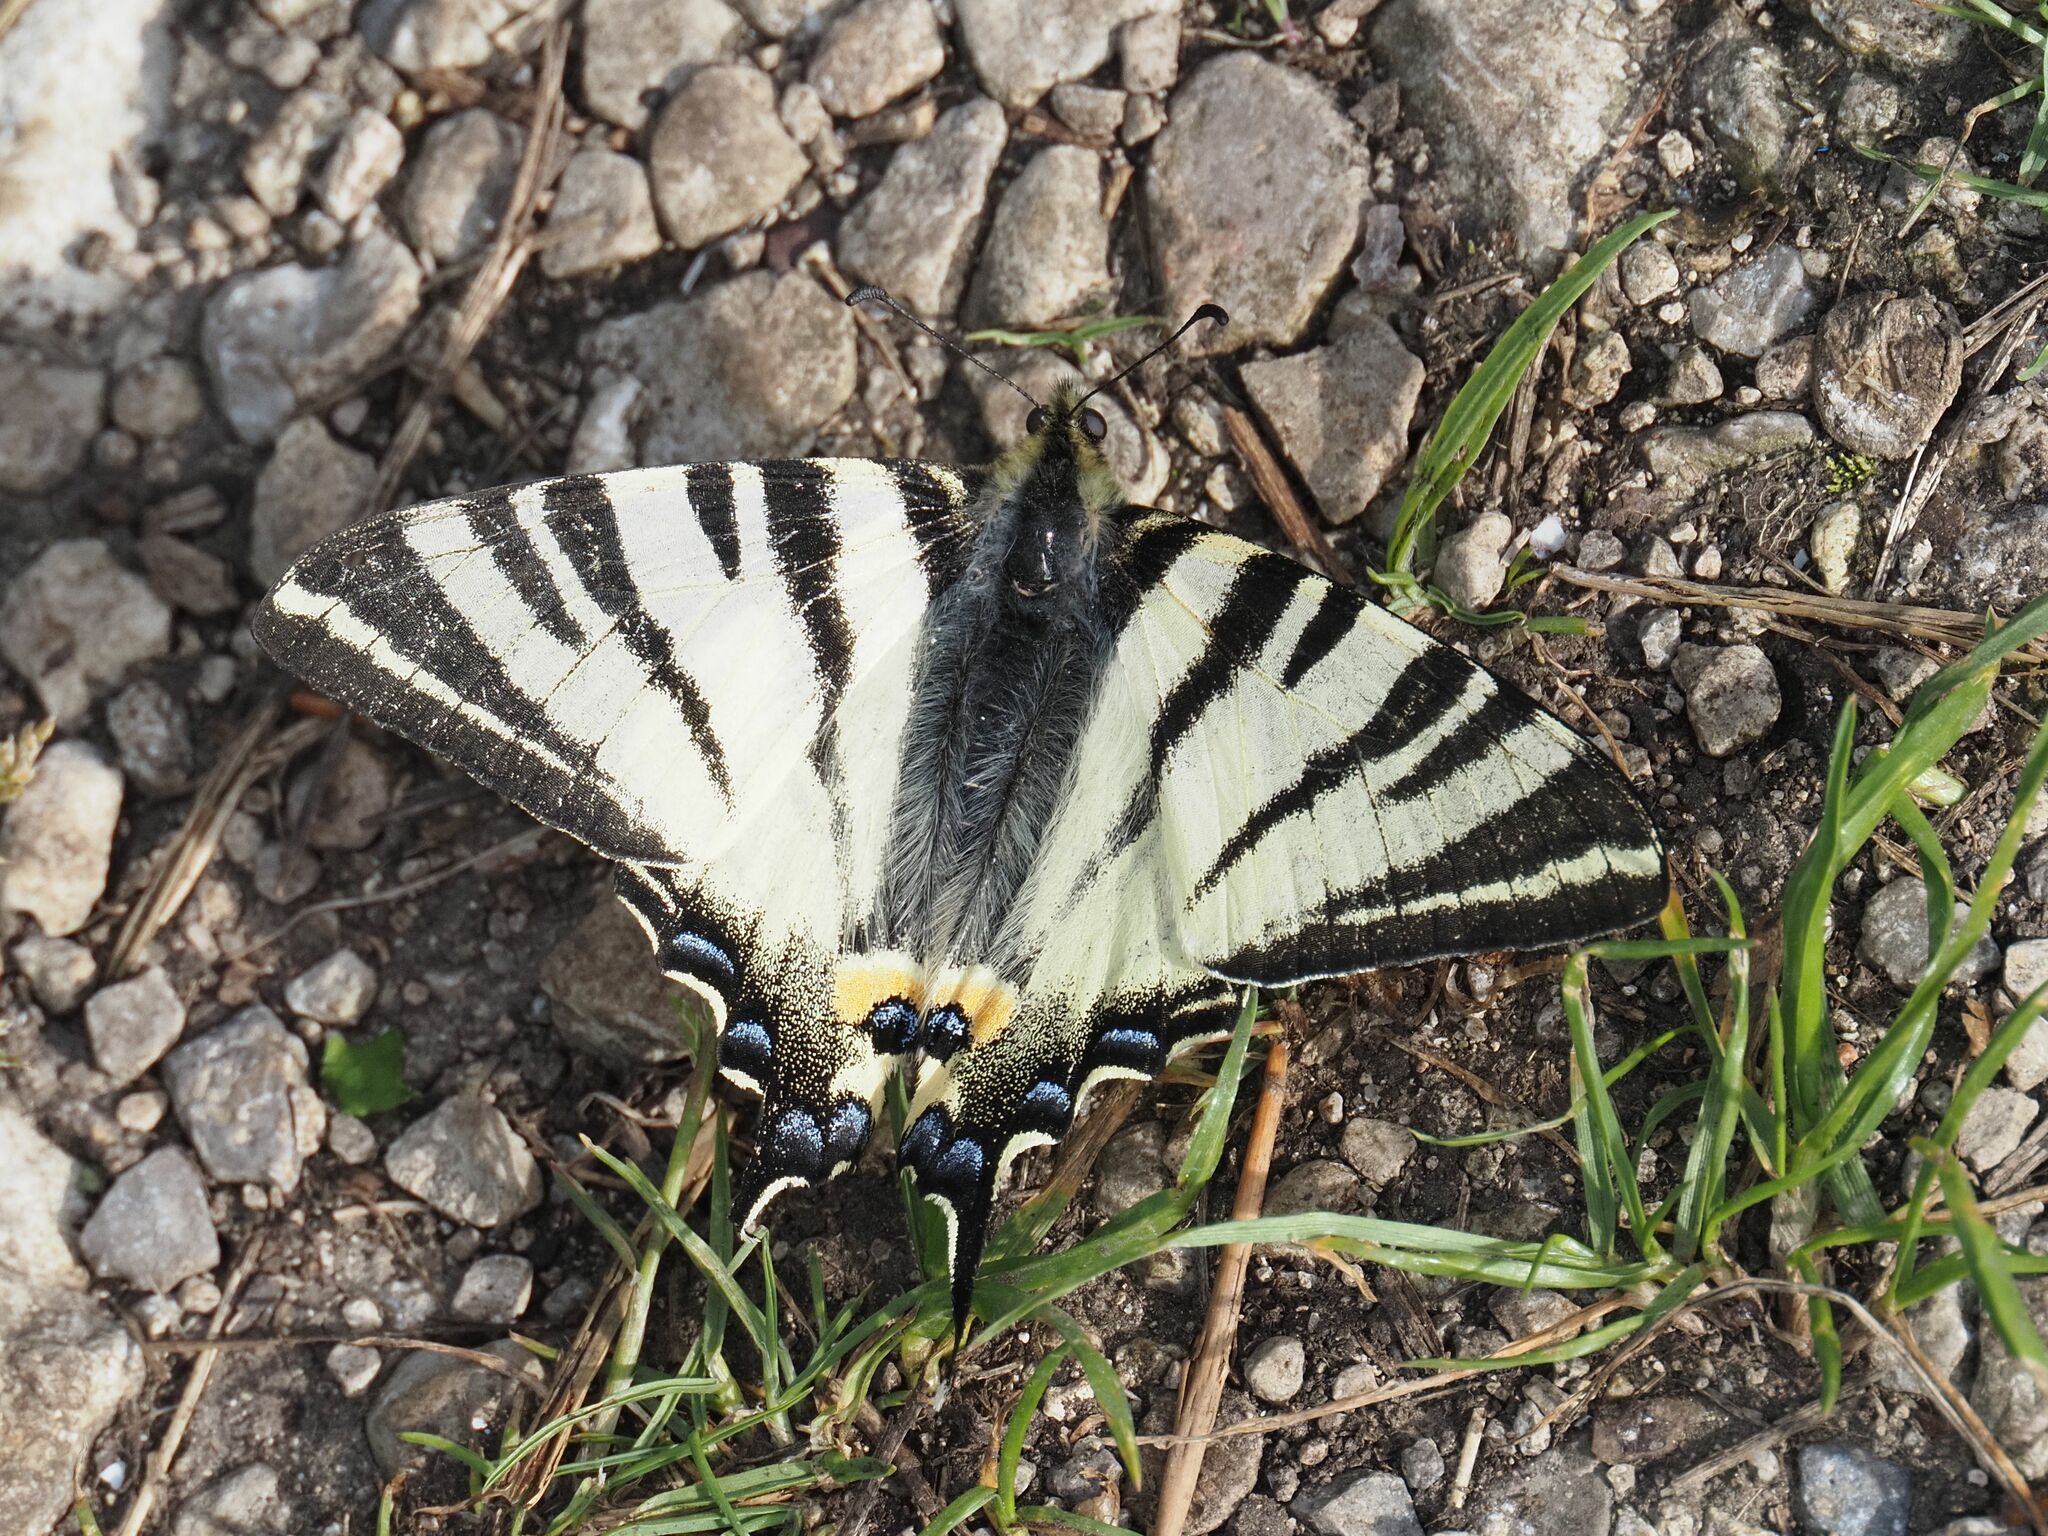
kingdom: Animalia
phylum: Arthropoda
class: Insecta
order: Lepidoptera
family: Papilionidae
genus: Iphiclides
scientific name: Iphiclides podalirius
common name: Scarce swallowtail
